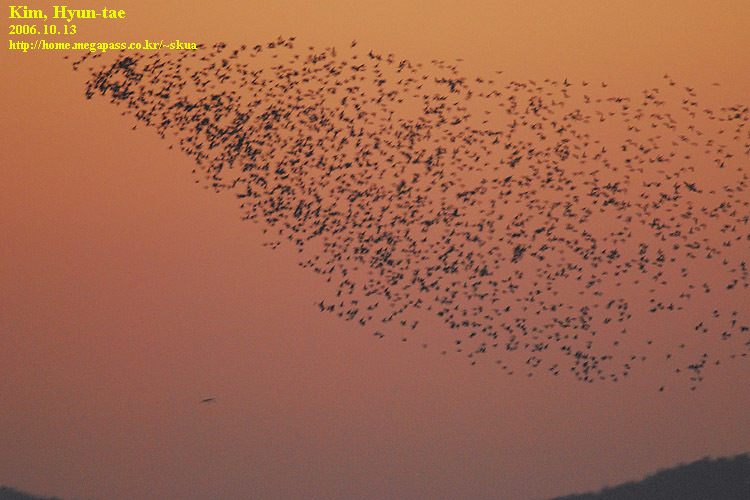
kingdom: Animalia
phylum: Chordata
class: Aves
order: Anseriformes
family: Anatidae
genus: Sibirionetta
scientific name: Sibirionetta formosa
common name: Baikal teal
